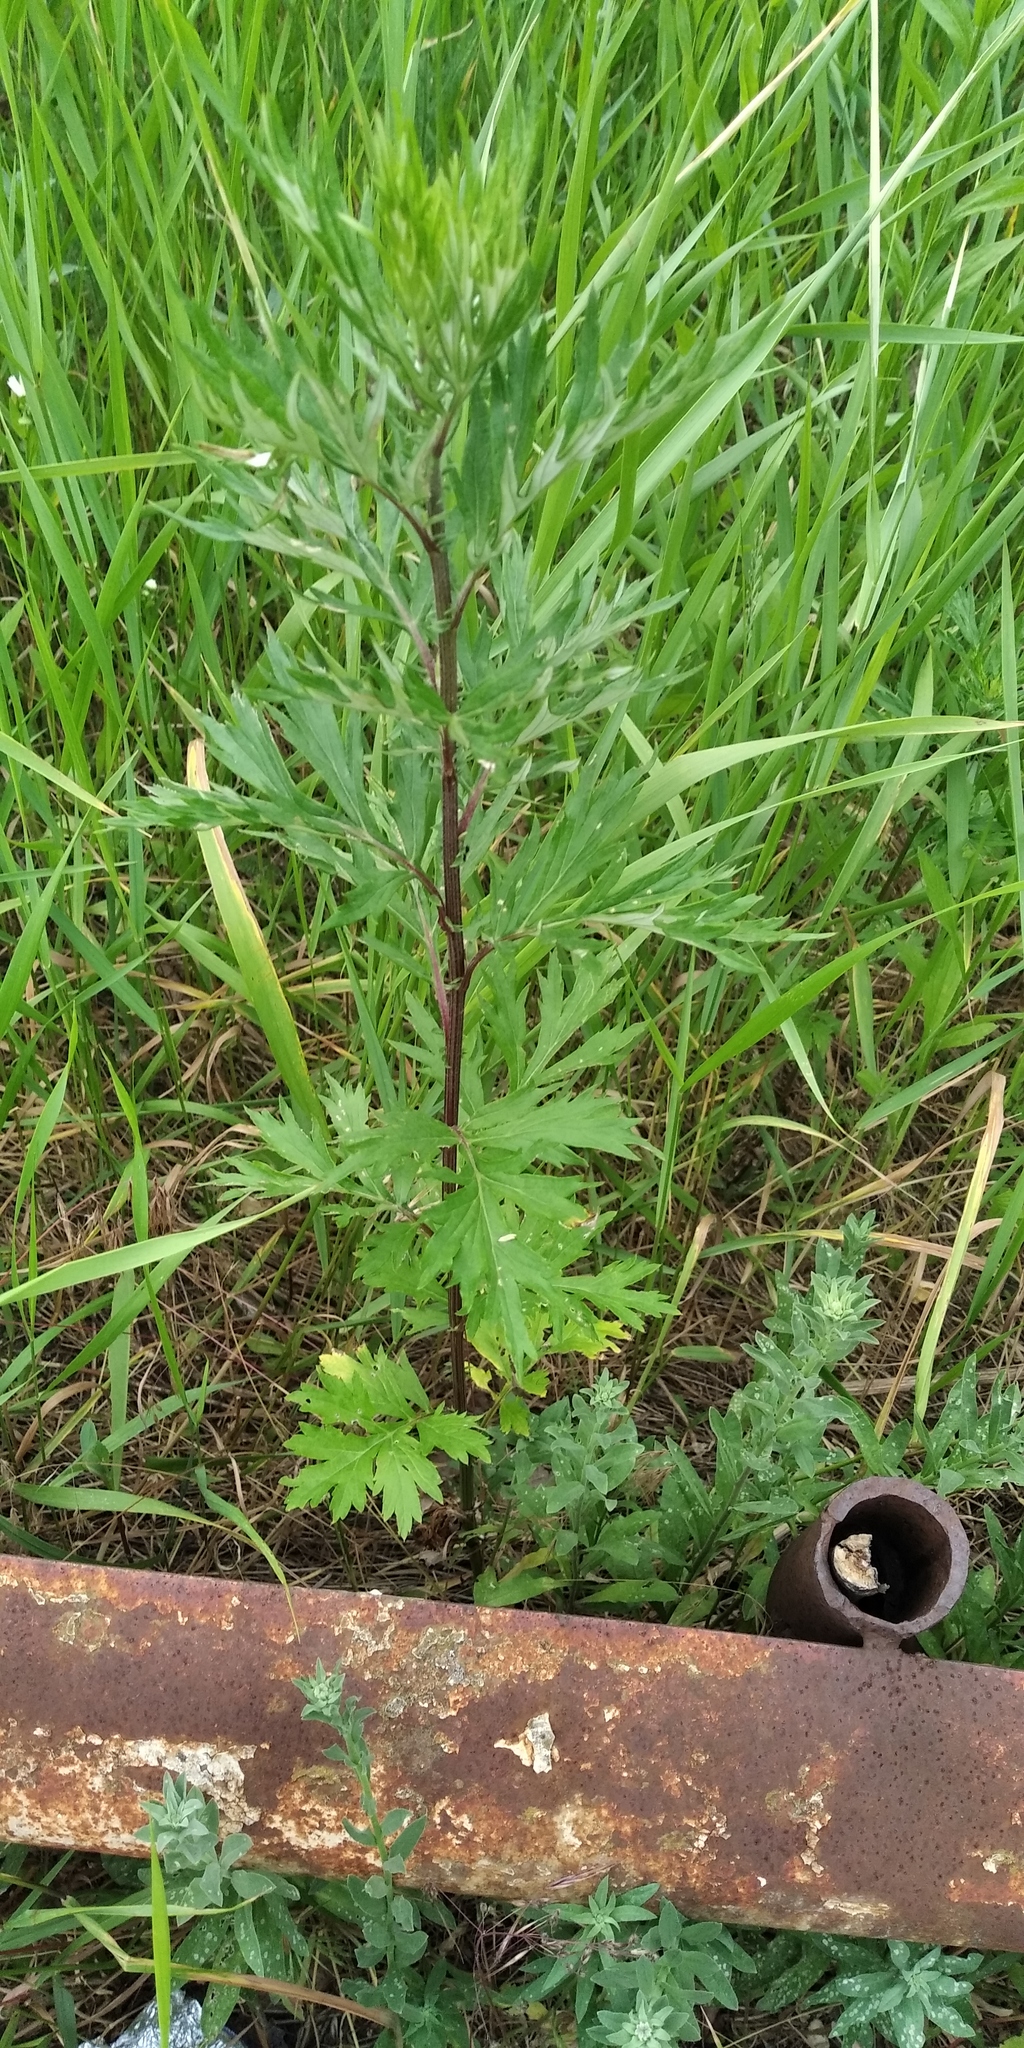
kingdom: Plantae
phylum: Tracheophyta
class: Magnoliopsida
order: Asterales
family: Asteraceae
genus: Artemisia
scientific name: Artemisia vulgaris
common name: Mugwort
